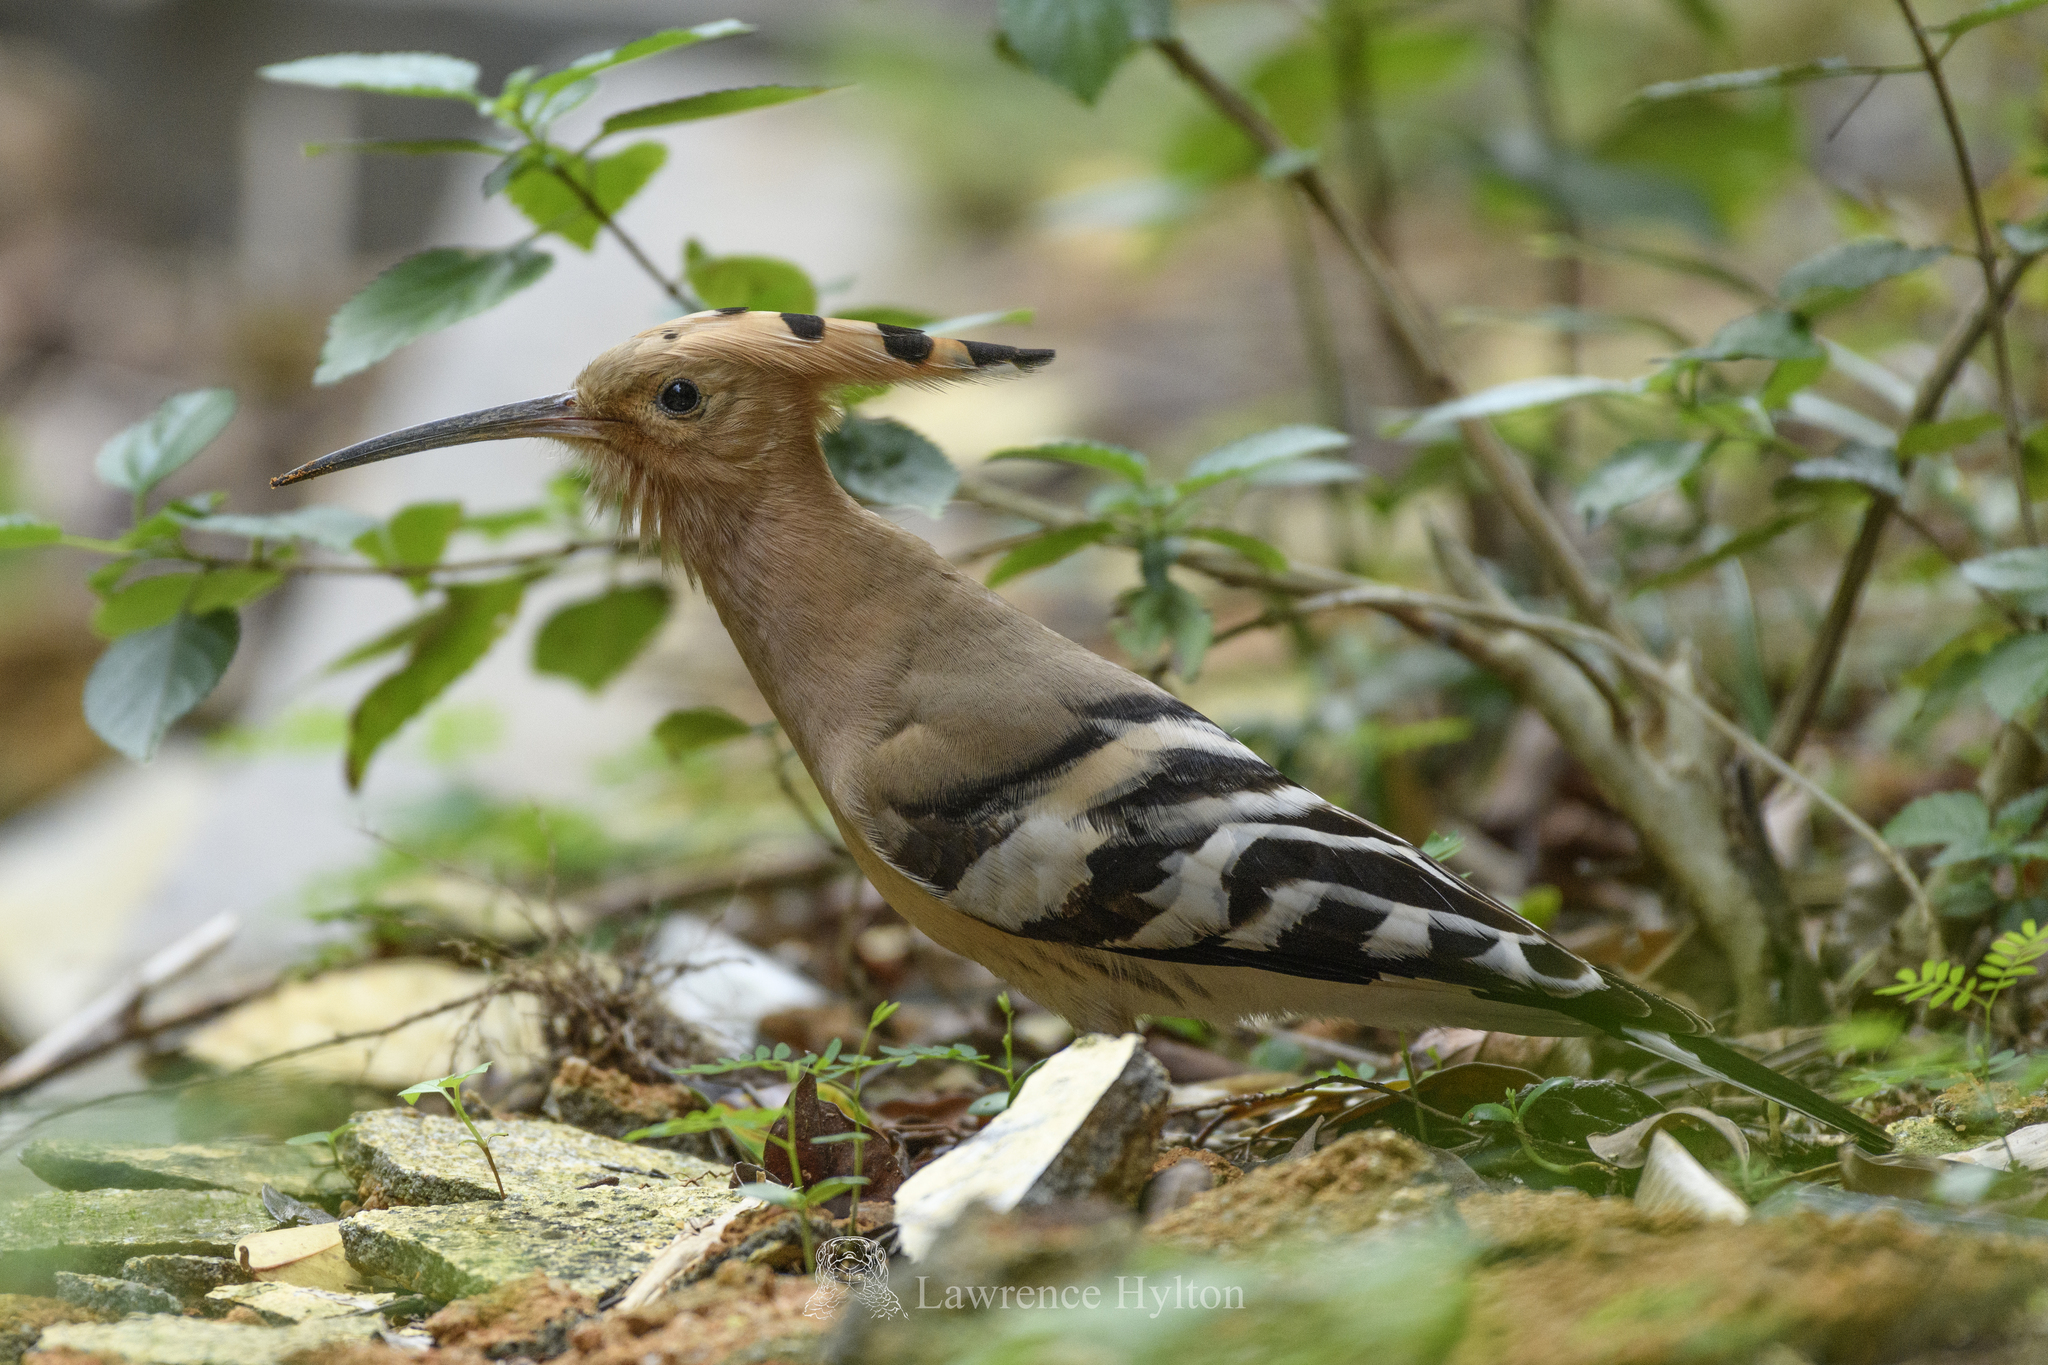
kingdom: Animalia
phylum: Chordata
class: Aves
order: Bucerotiformes
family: Upupidae
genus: Upupa
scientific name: Upupa epops
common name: Eurasian hoopoe
